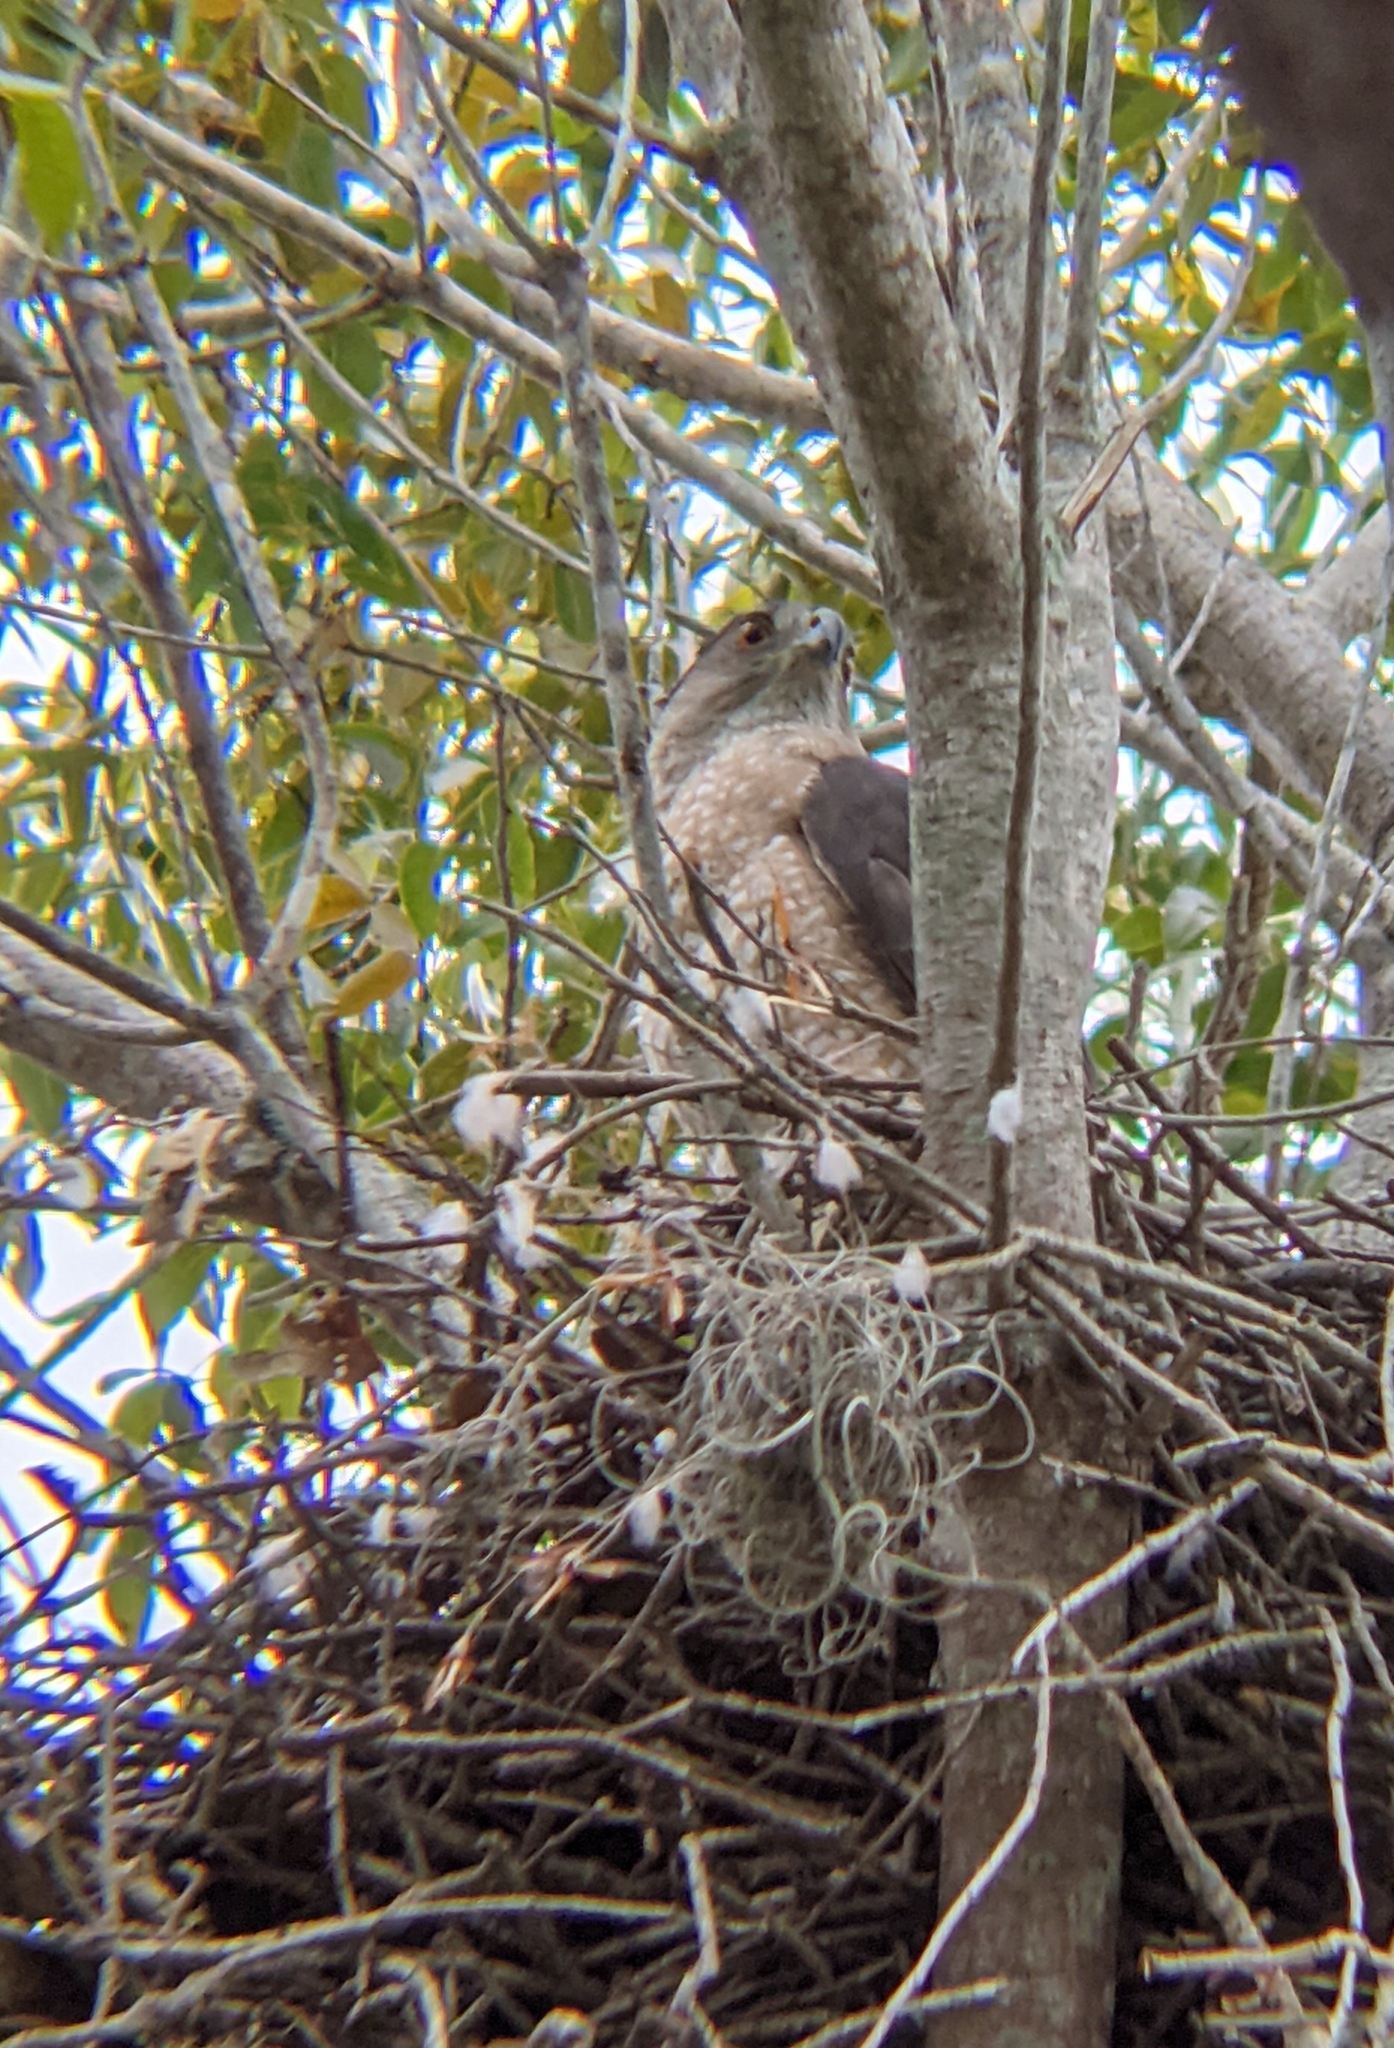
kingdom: Animalia
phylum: Chordata
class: Aves
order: Accipitriformes
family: Accipitridae
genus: Accipiter
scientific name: Accipiter cooperii
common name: Cooper's hawk
